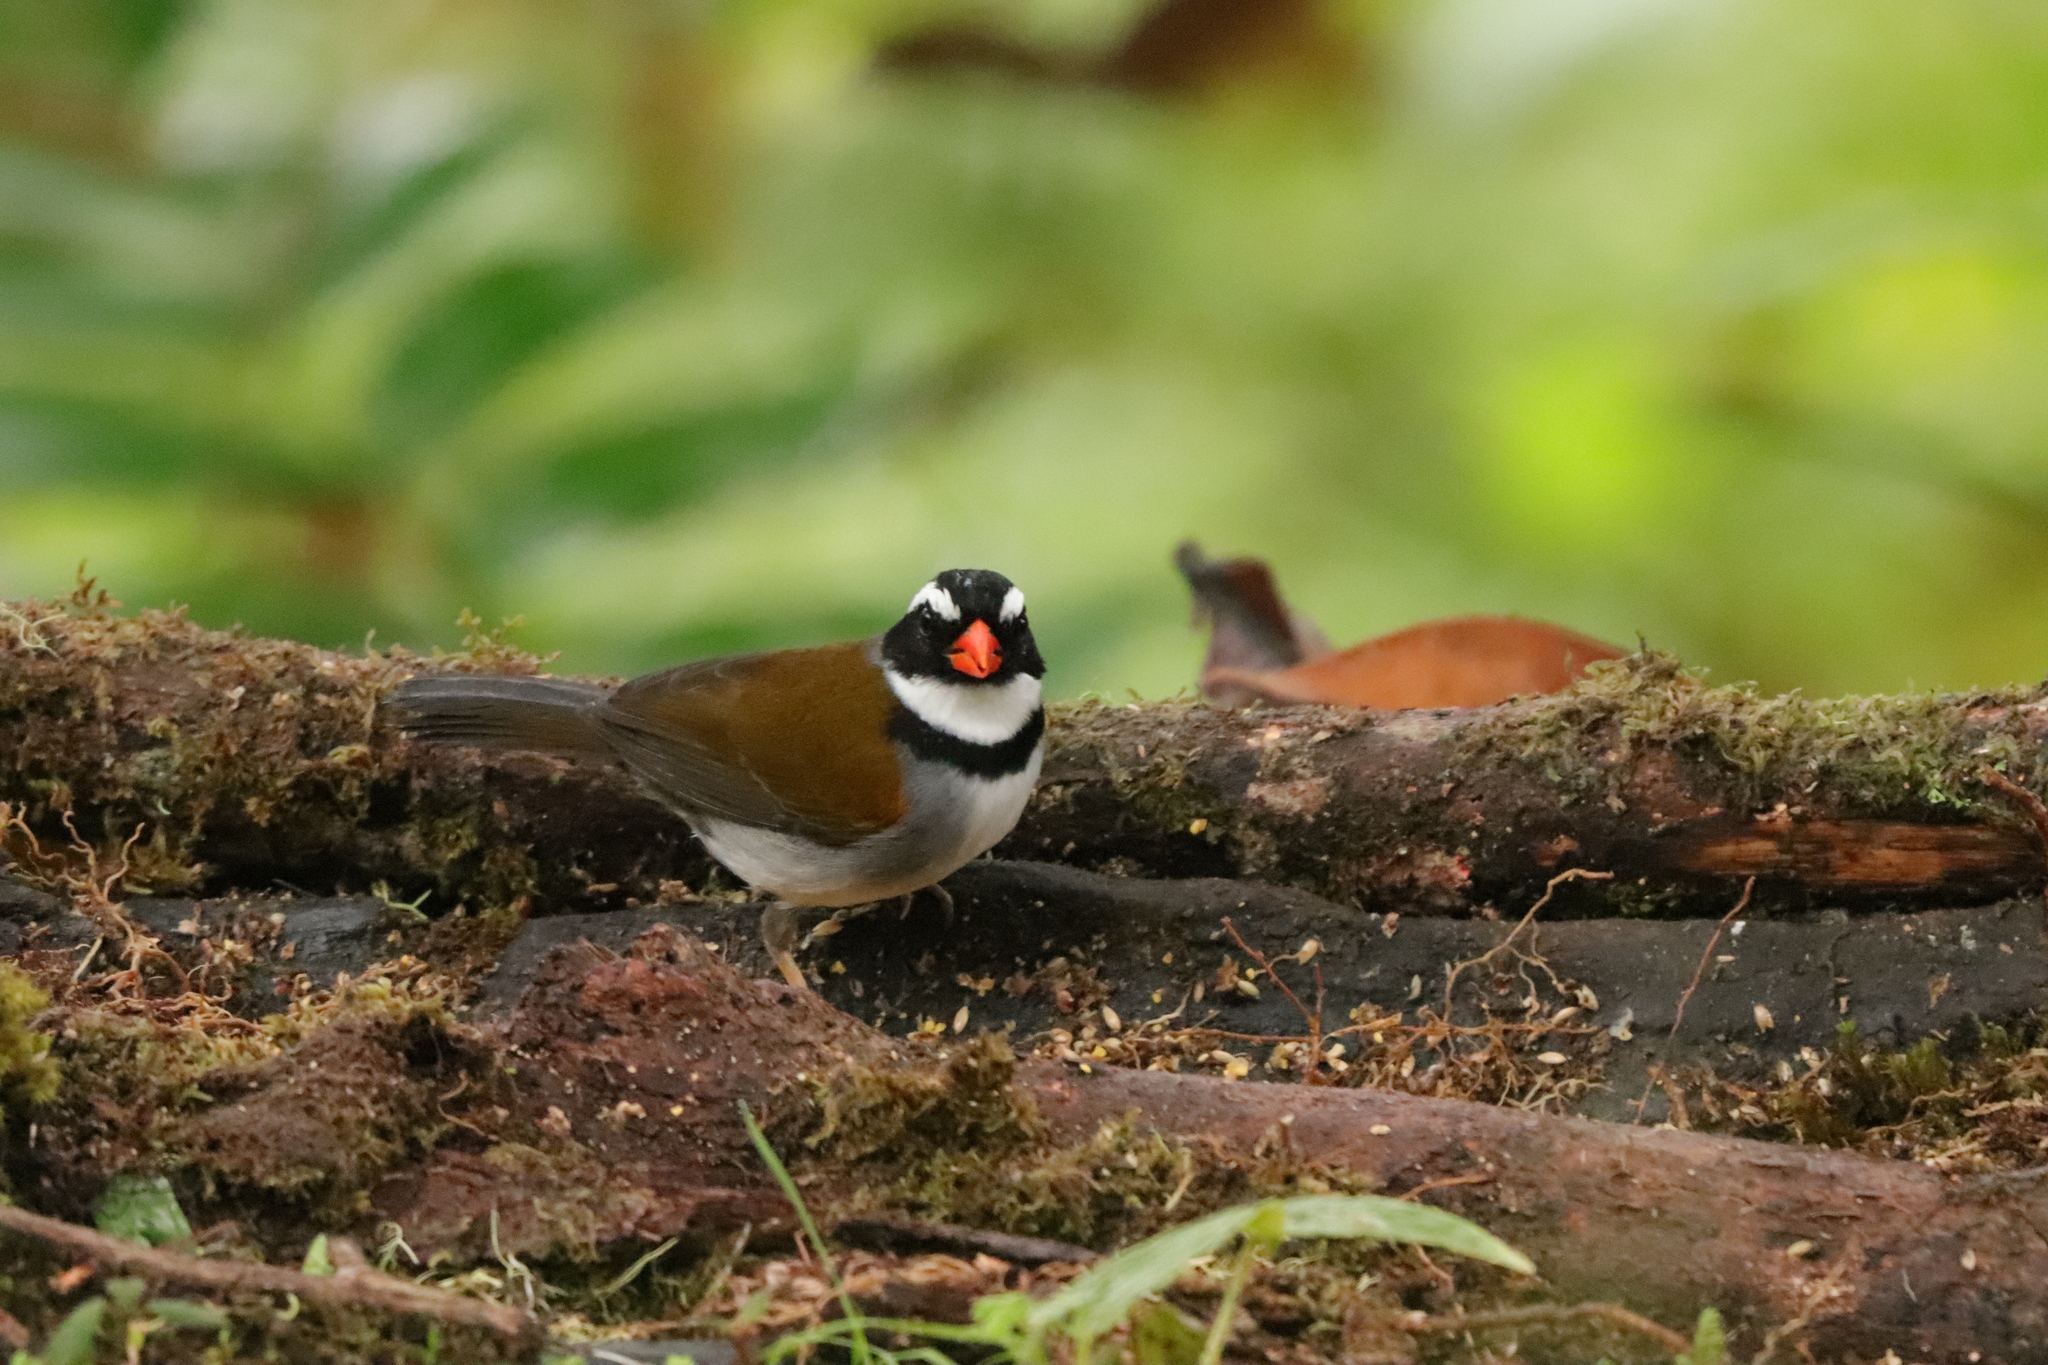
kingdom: Animalia
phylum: Chordata
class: Aves
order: Passeriformes
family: Passerellidae
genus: Arremon
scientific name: Arremon aurantiirostris
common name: Orange-billed sparrow
